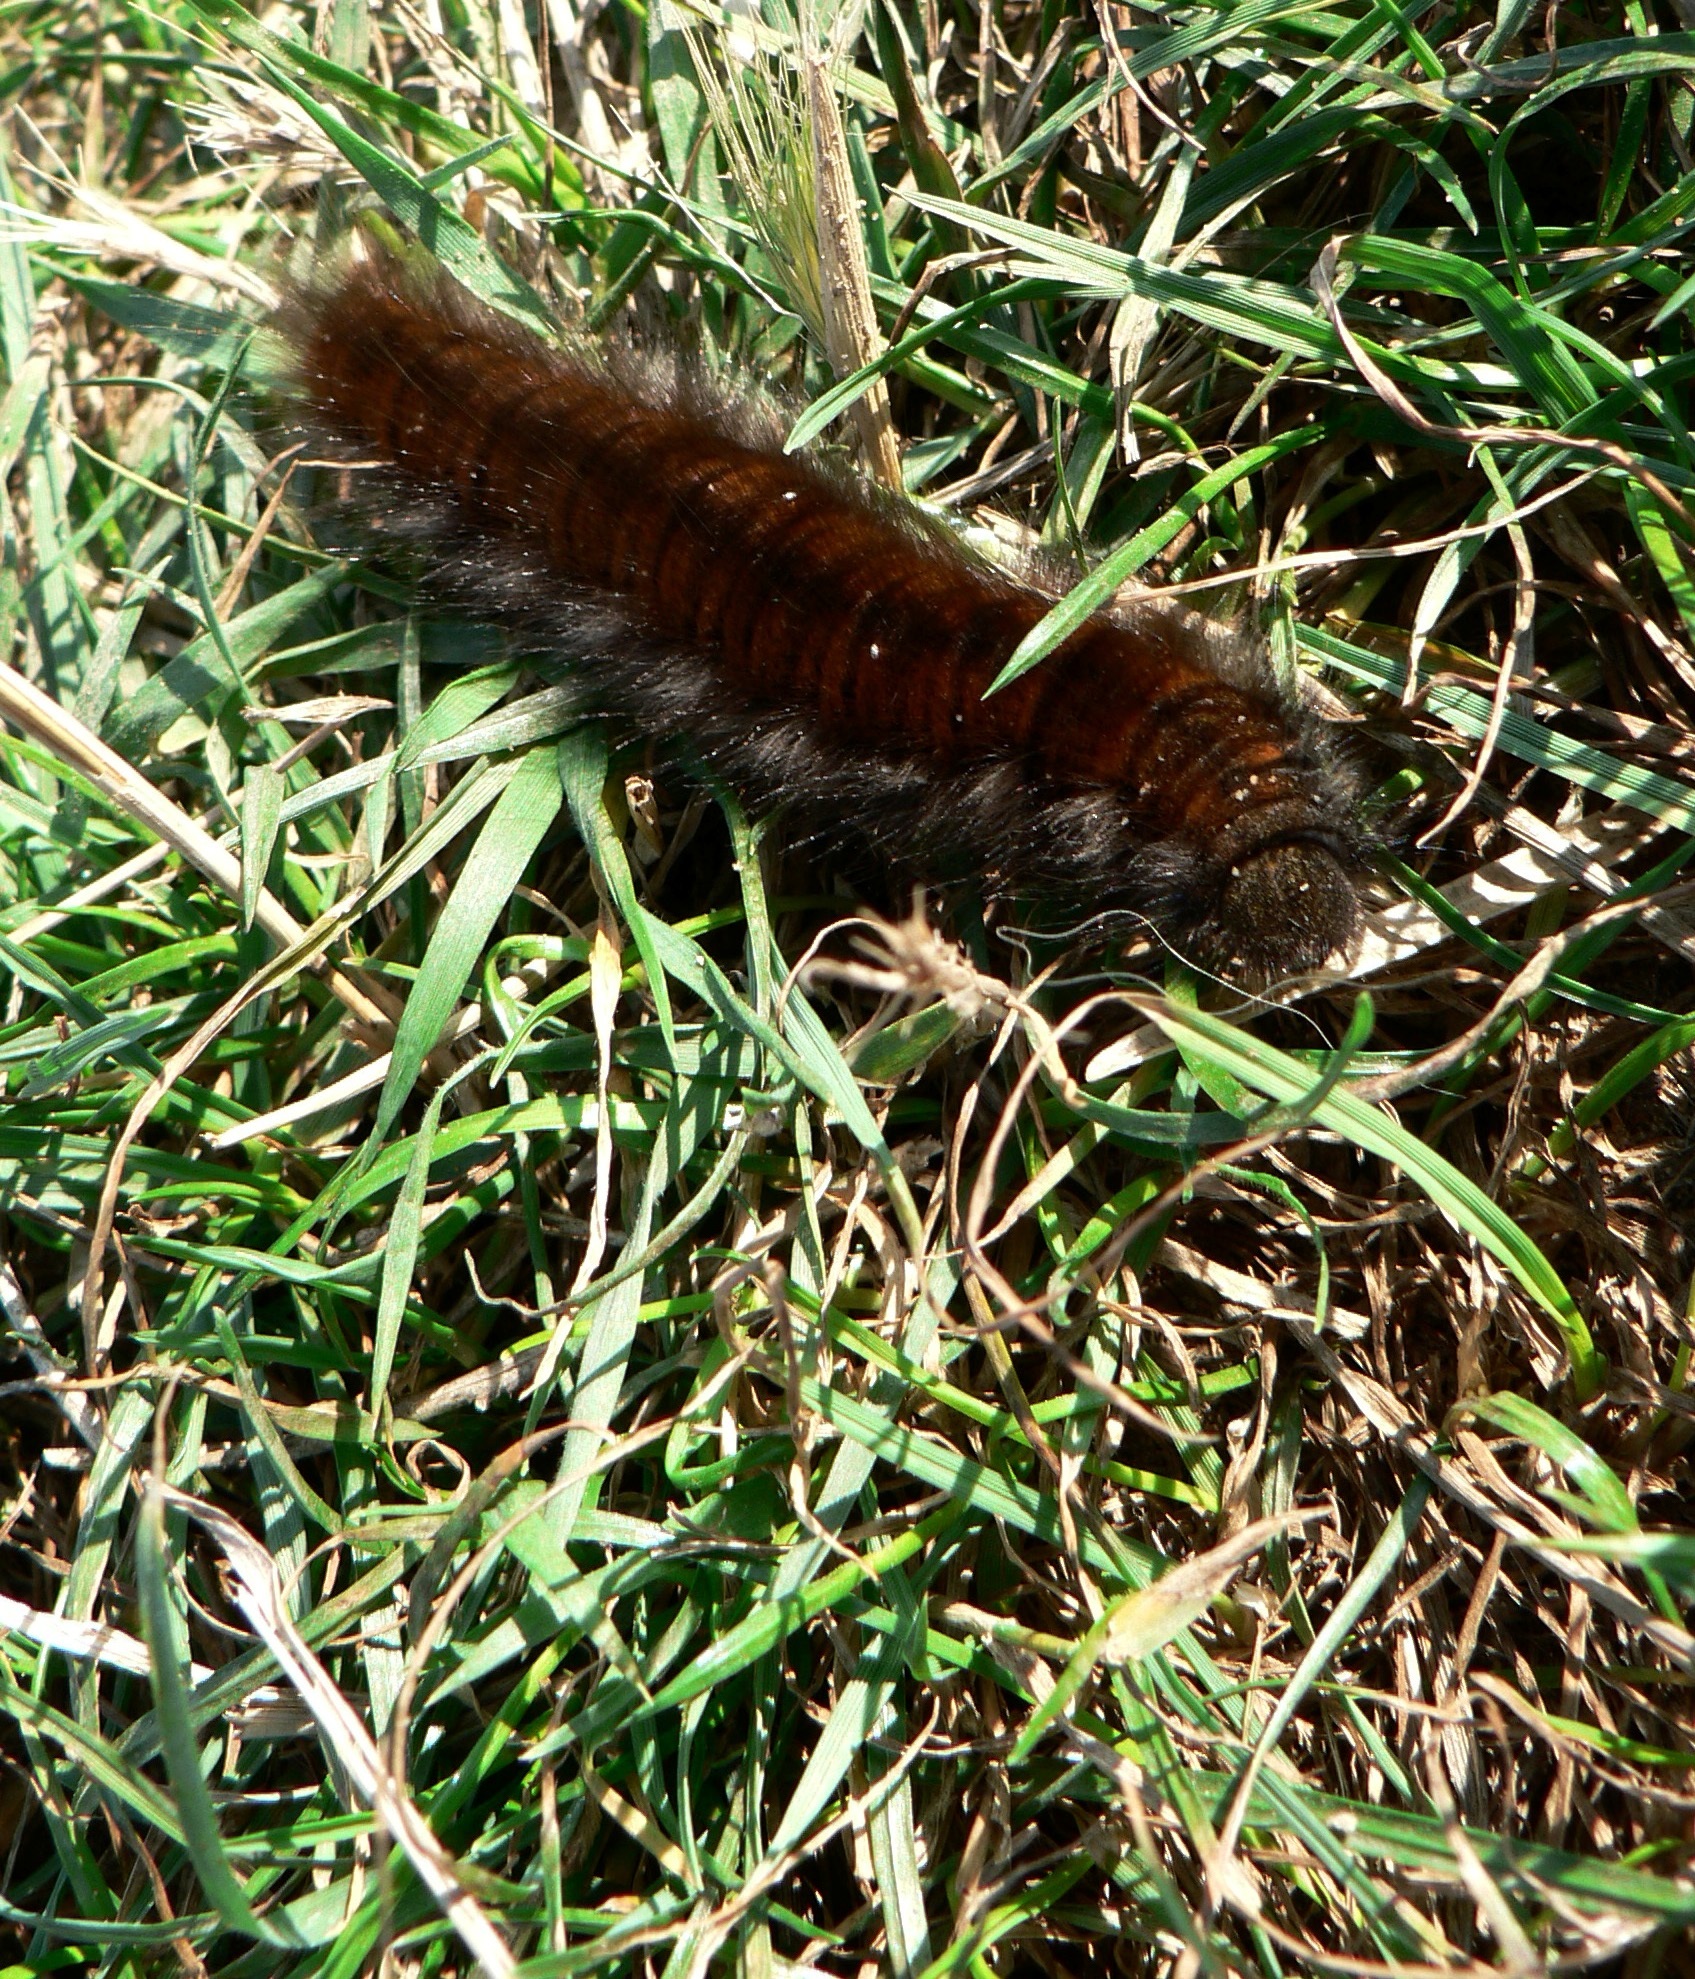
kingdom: Animalia
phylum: Arthropoda
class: Insecta
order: Lepidoptera
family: Lasiocampidae
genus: Macrothylacia
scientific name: Macrothylacia rubi
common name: Fox moth
